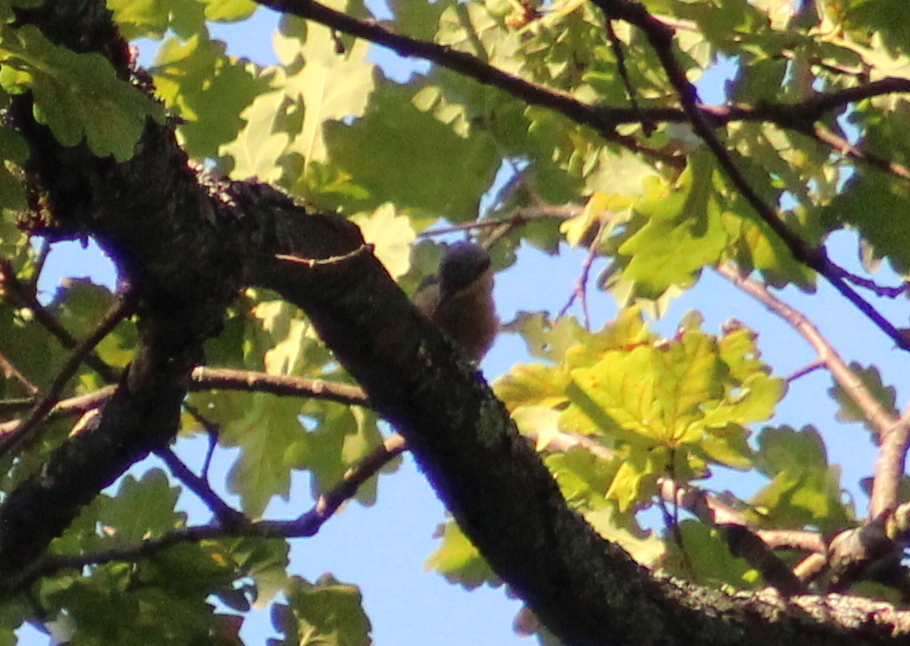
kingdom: Animalia
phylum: Chordata
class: Aves
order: Passeriformes
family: Sittidae
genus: Sitta
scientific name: Sitta europaea
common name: Eurasian nuthatch
